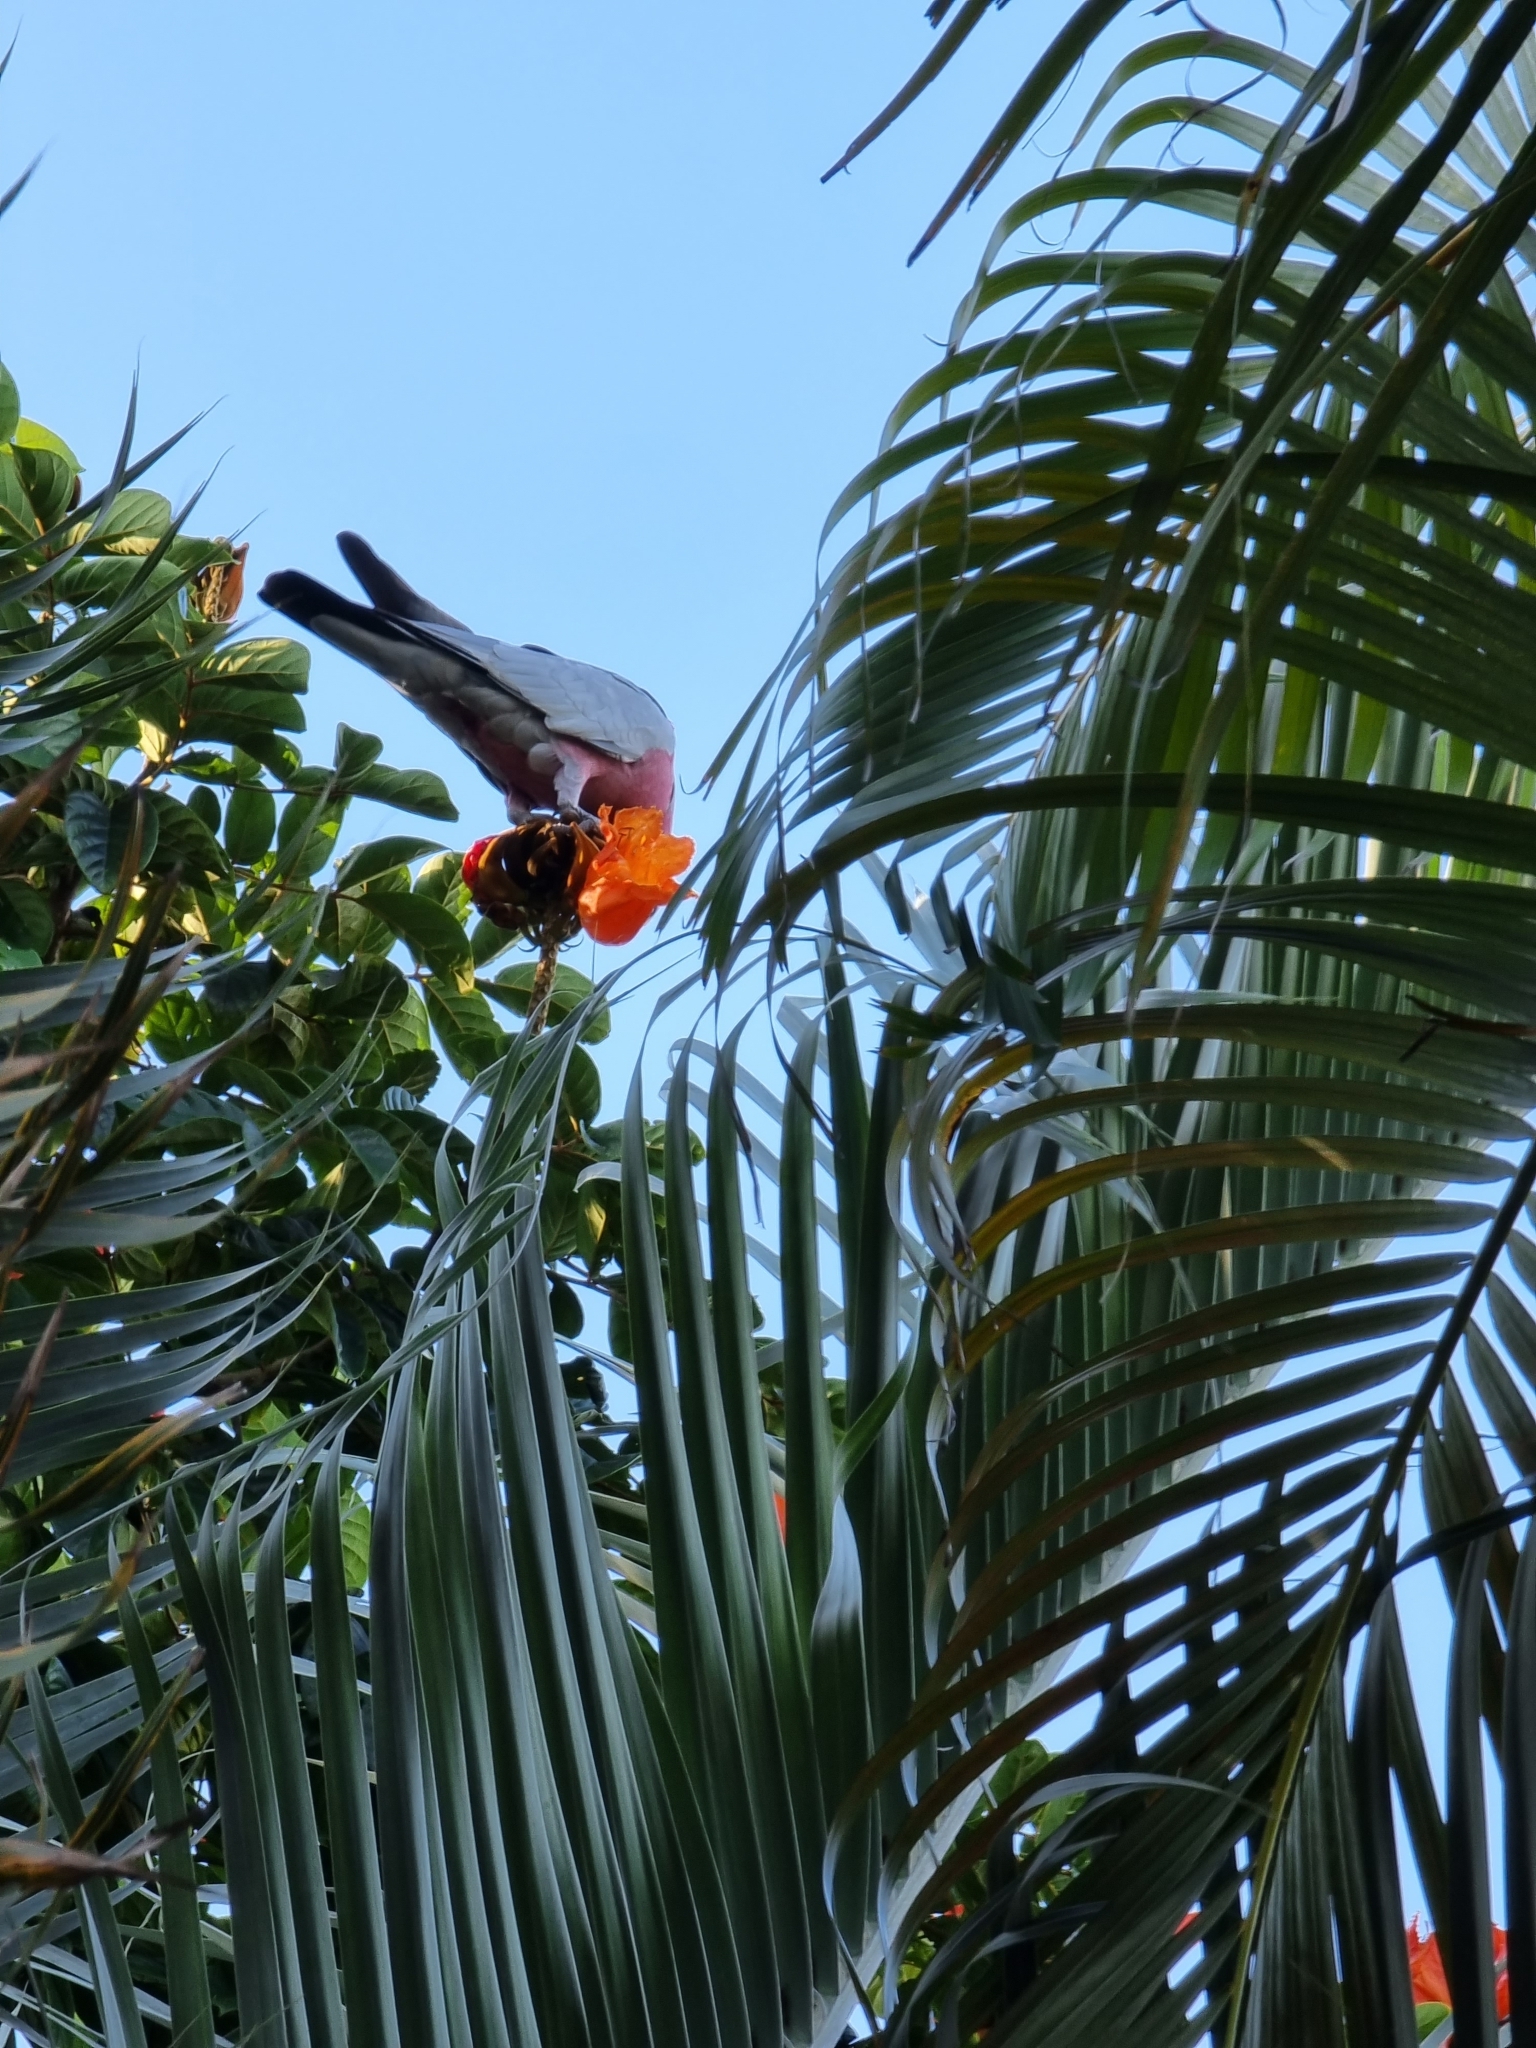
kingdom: Animalia
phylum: Chordata
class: Aves
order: Psittaciformes
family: Psittacidae
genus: Eolophus
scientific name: Eolophus roseicapilla
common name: Galah
